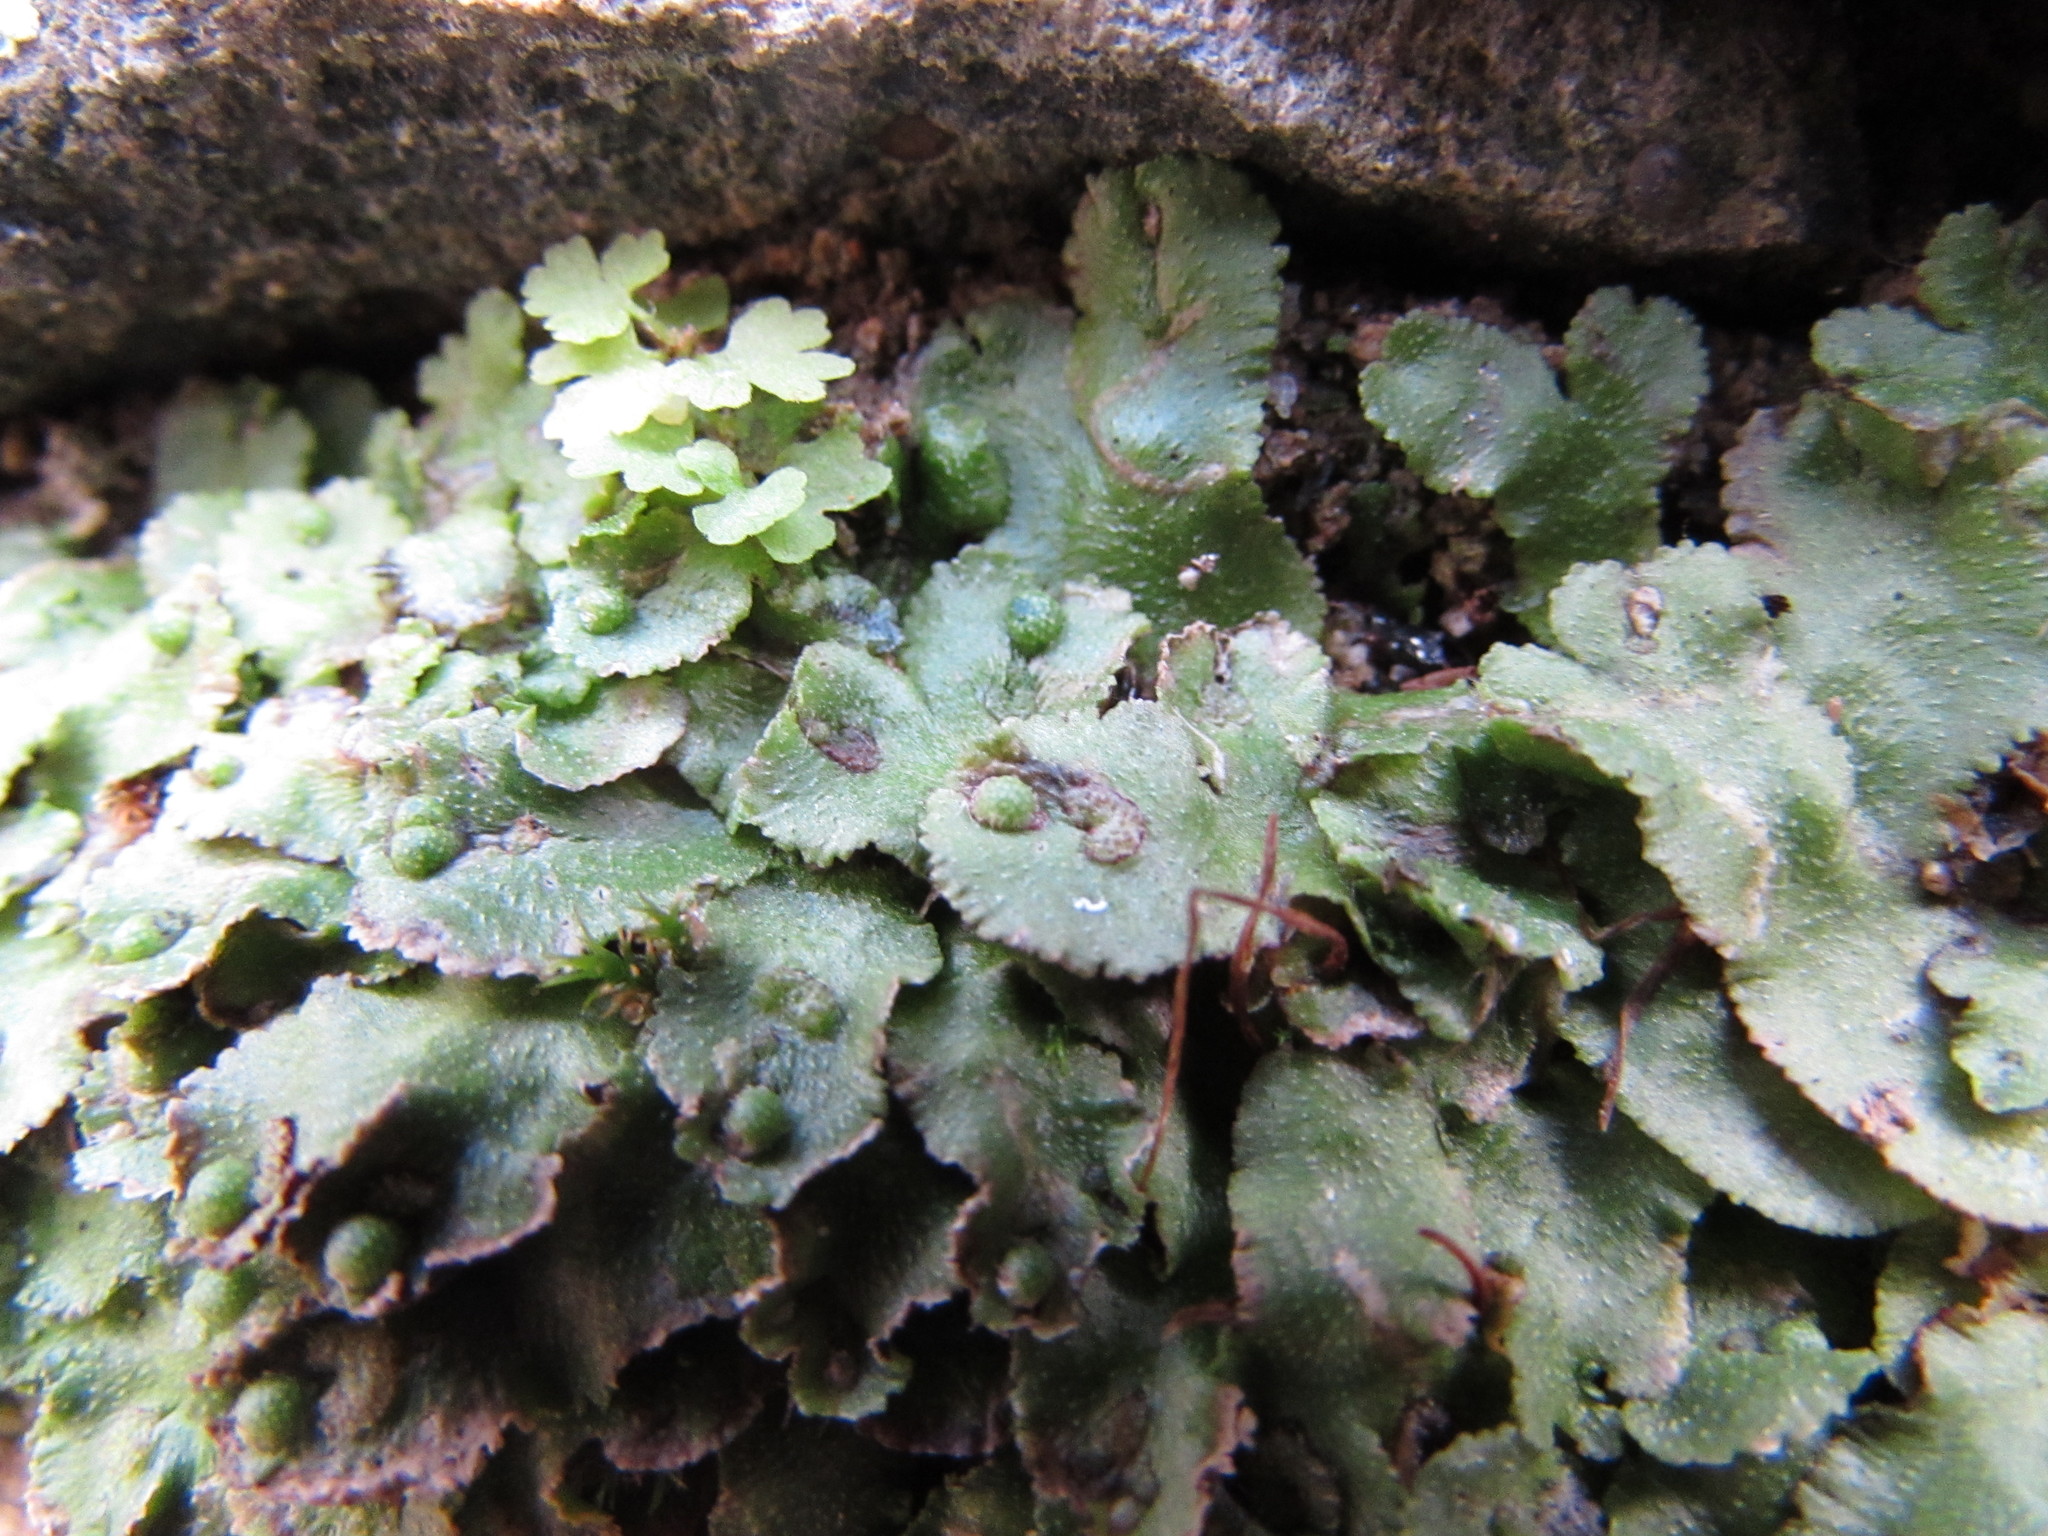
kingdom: Plantae
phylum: Marchantiophyta
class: Marchantiopsida
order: Marchantiales
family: Aytoniaceae
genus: Reboulia
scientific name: Reboulia hemisphaerica
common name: Purple-margined liverwort
